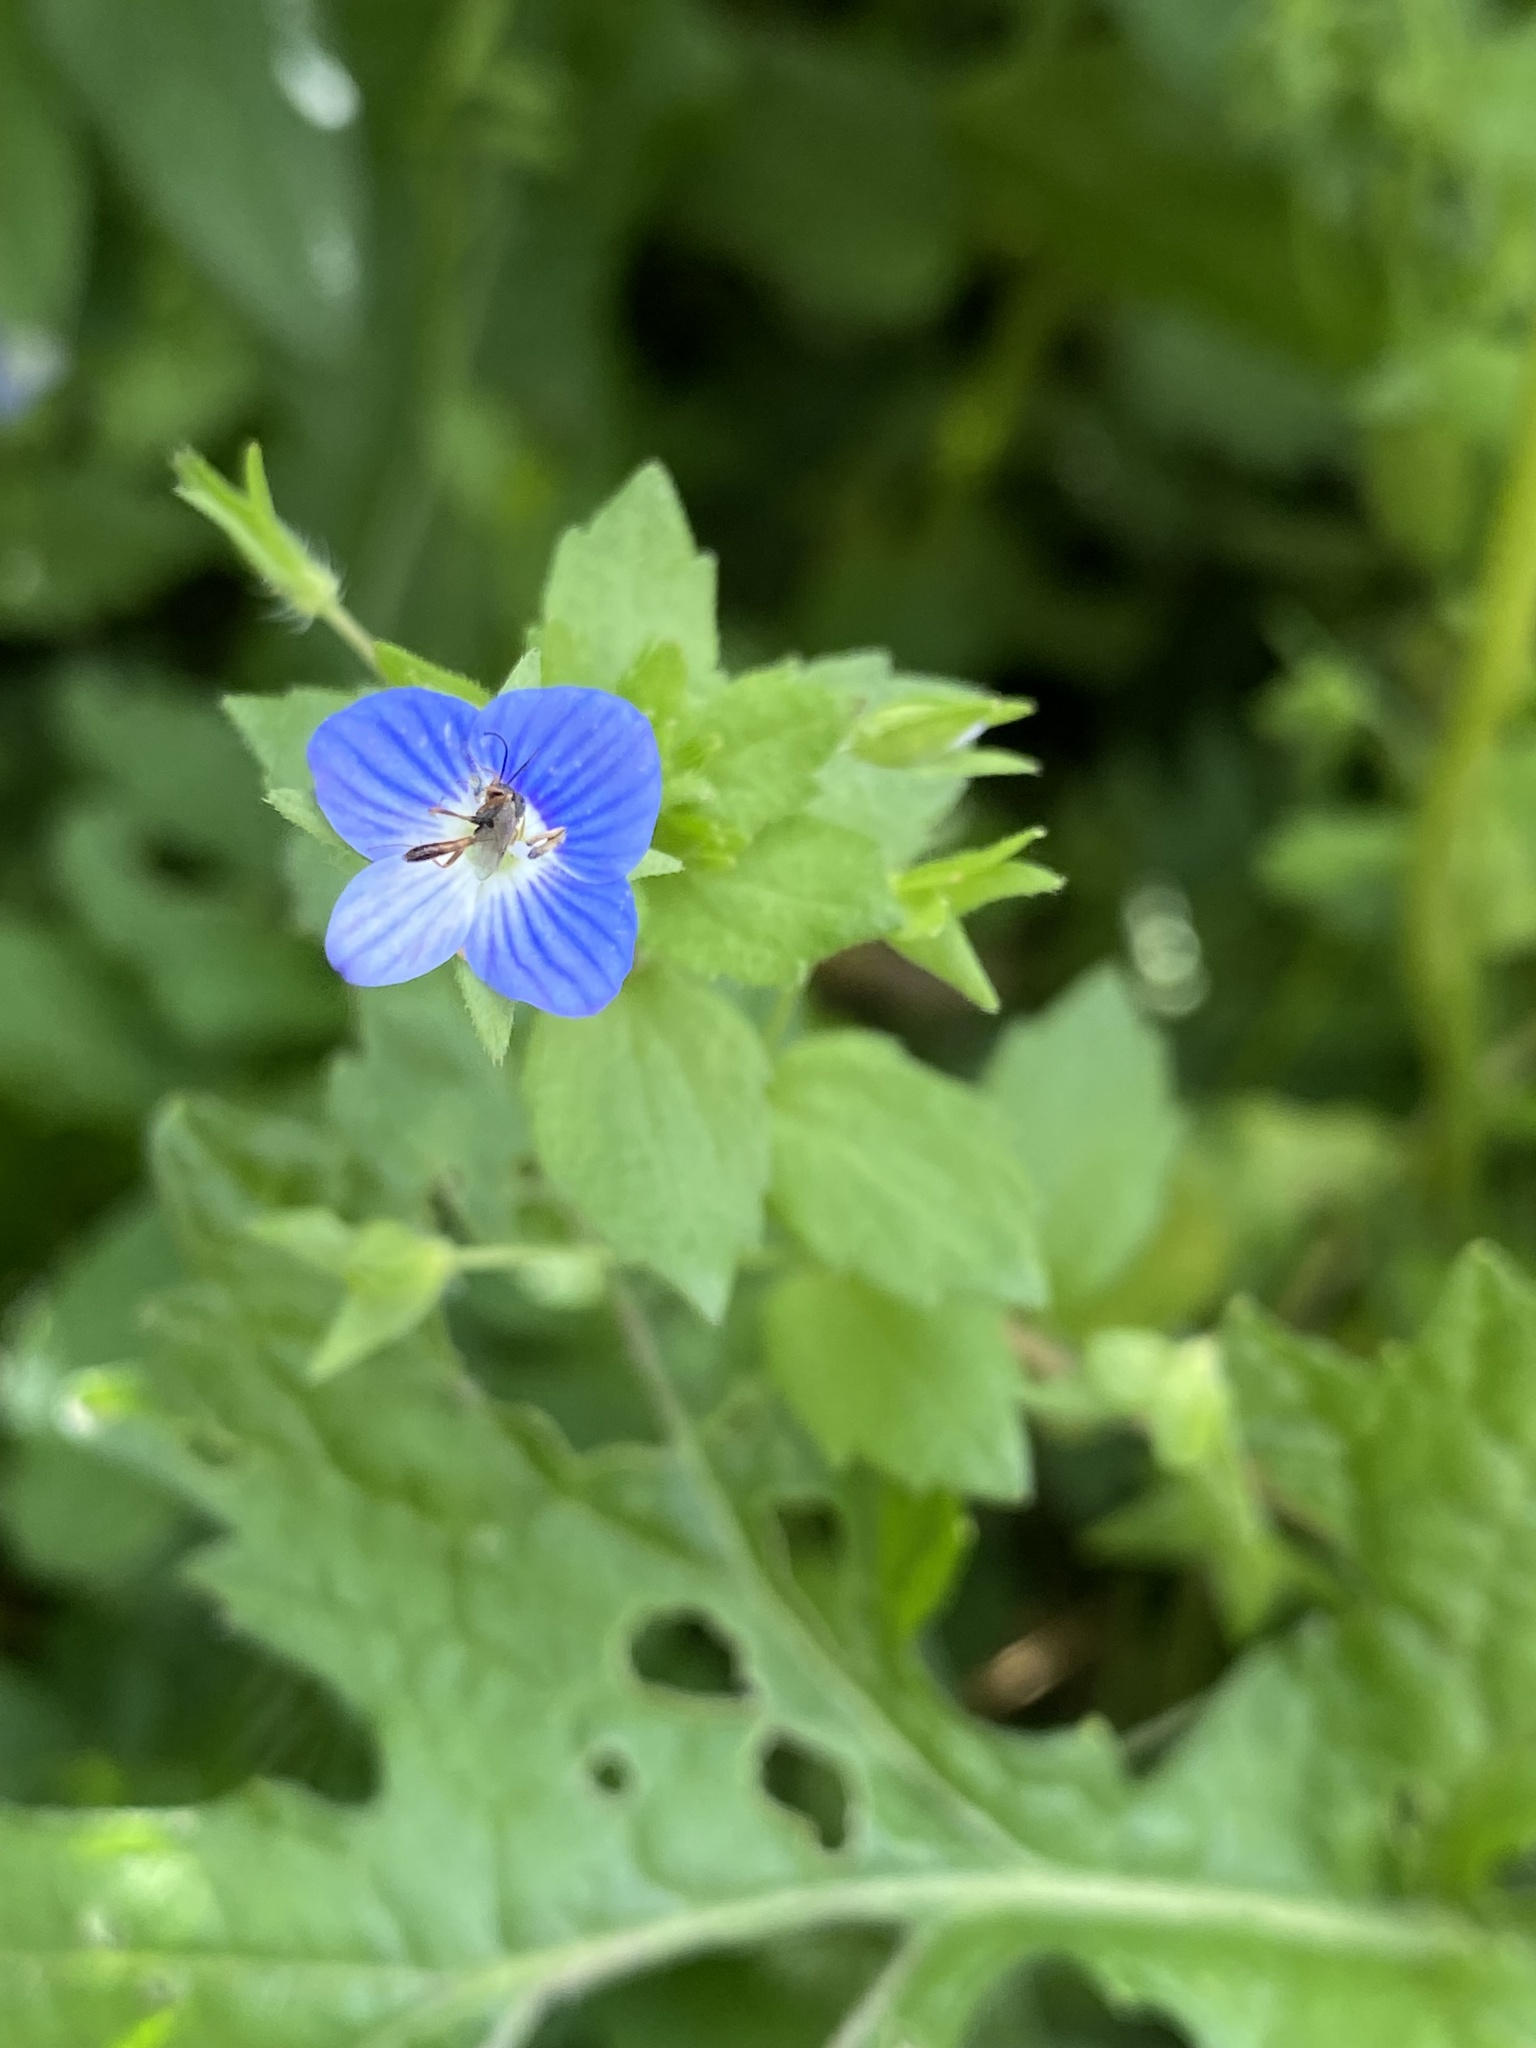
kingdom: Plantae
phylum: Tracheophyta
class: Magnoliopsida
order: Lamiales
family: Plantaginaceae
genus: Veronica
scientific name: Veronica persica
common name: Common field-speedwell
